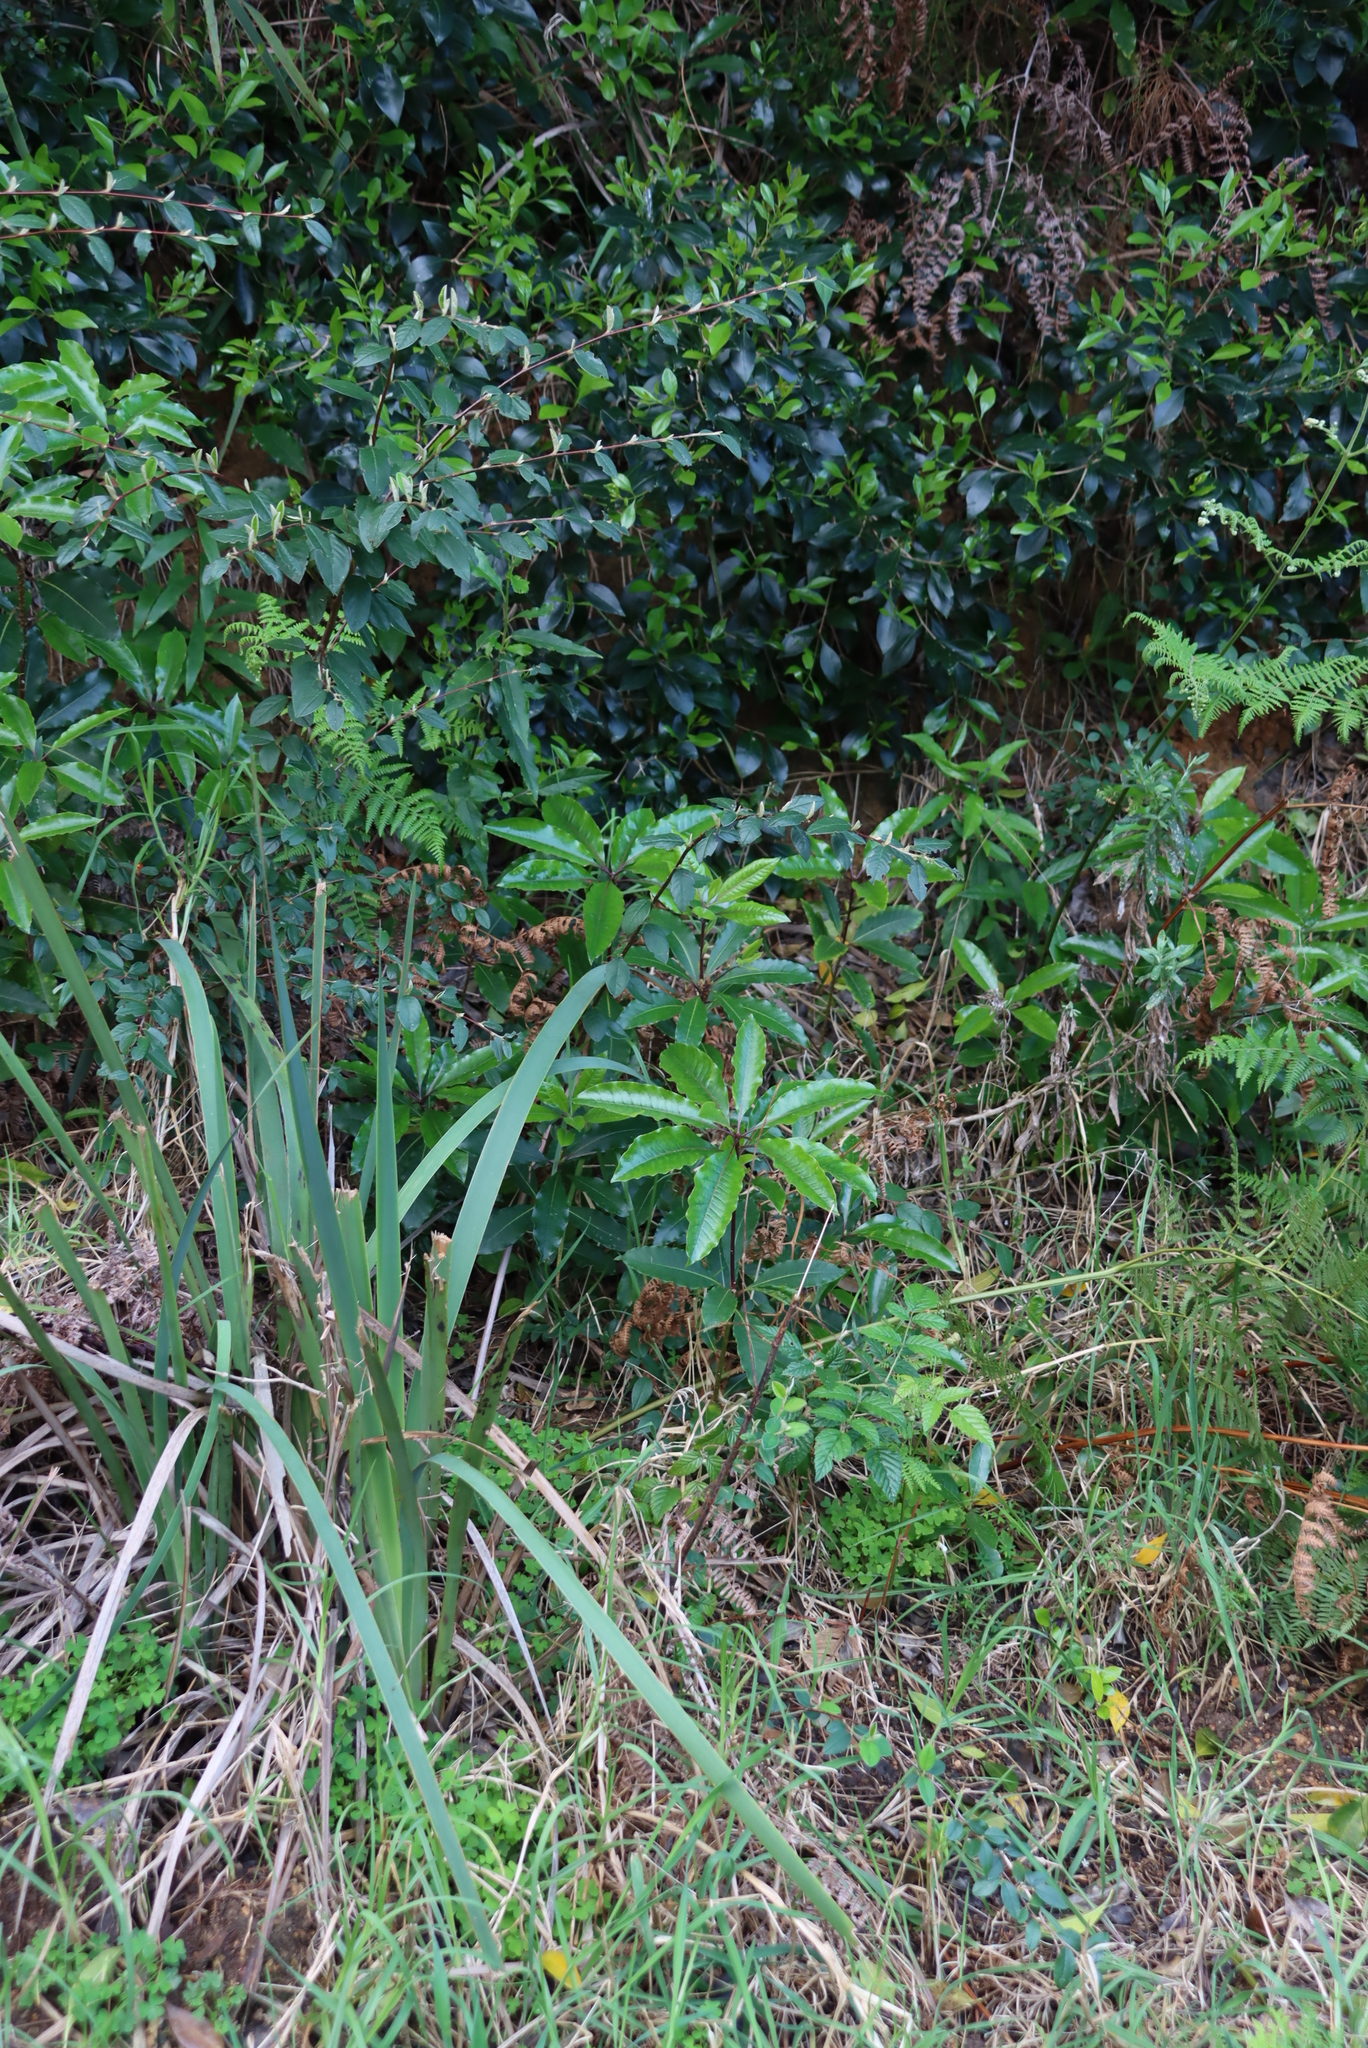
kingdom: Plantae
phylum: Tracheophyta
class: Magnoliopsida
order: Apiales
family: Pittosporaceae
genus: Pittosporum
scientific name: Pittosporum undulatum
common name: Australian cheesewood
